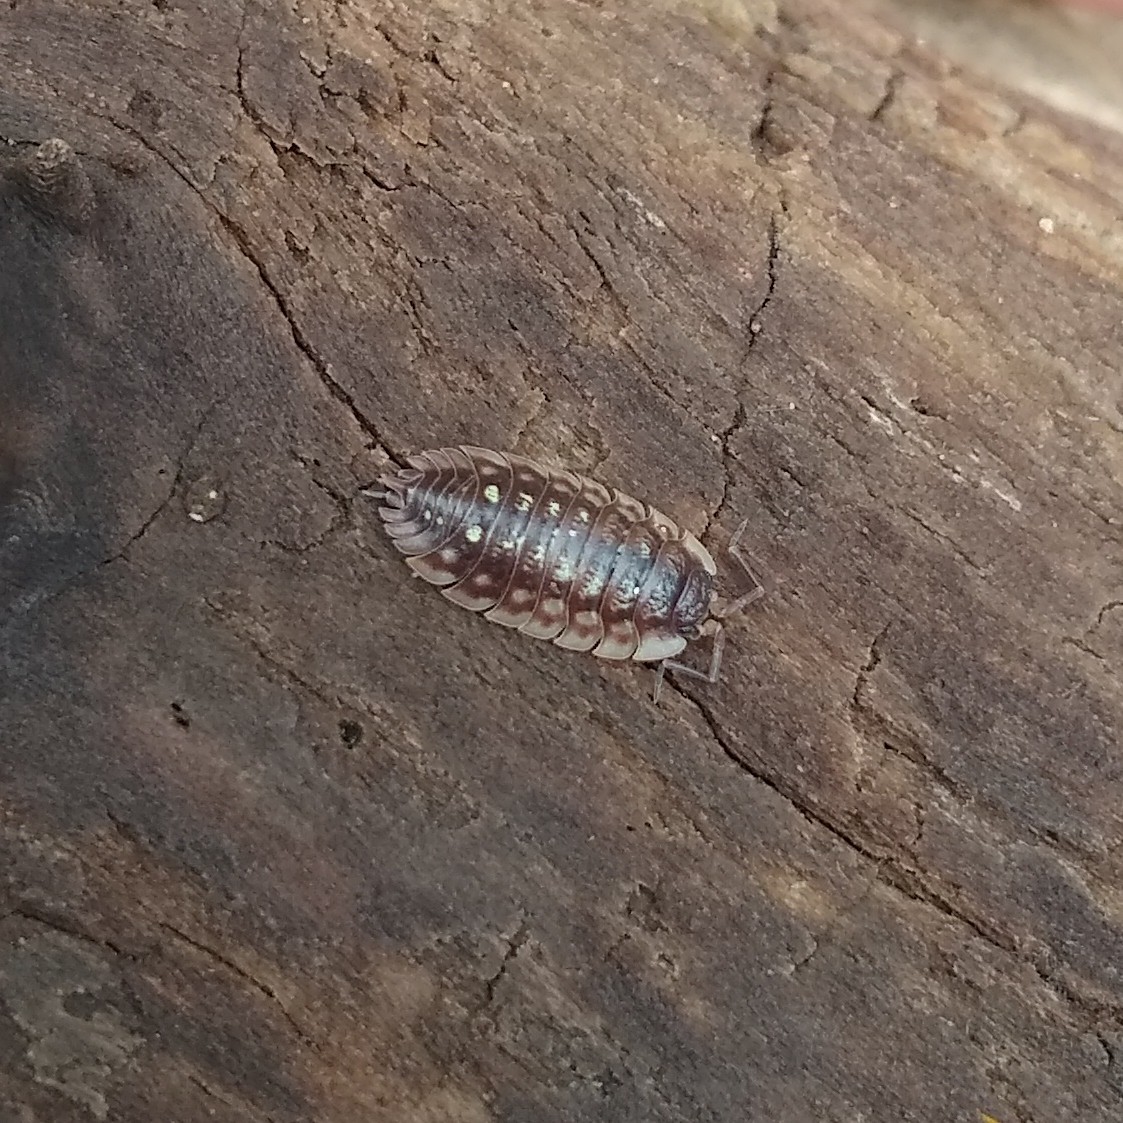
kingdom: Animalia
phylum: Arthropoda
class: Malacostraca
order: Isopoda
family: Oniscidae
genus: Oniscus
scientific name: Oniscus asellus
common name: Common shiny woodlouse
